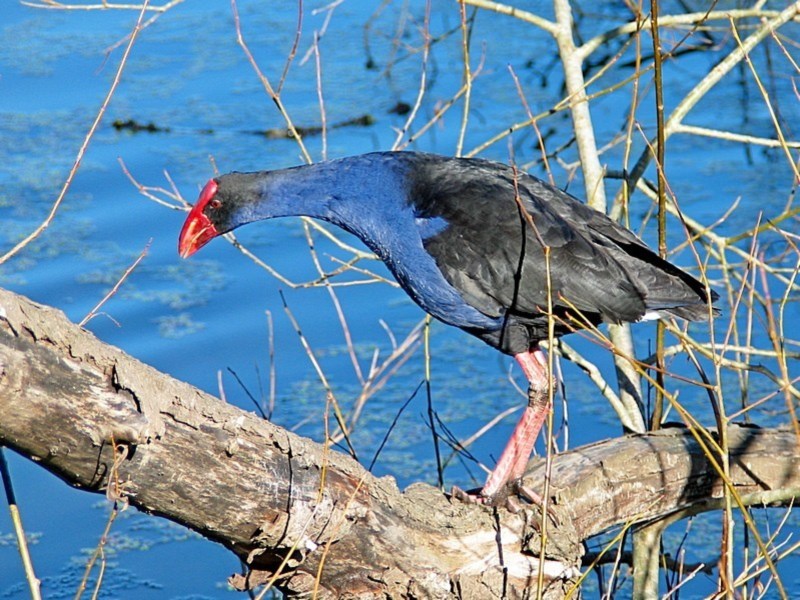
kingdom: Animalia
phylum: Chordata
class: Aves
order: Gruiformes
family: Rallidae
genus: Porphyrio
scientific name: Porphyrio melanotus
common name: Australasian swamphen
